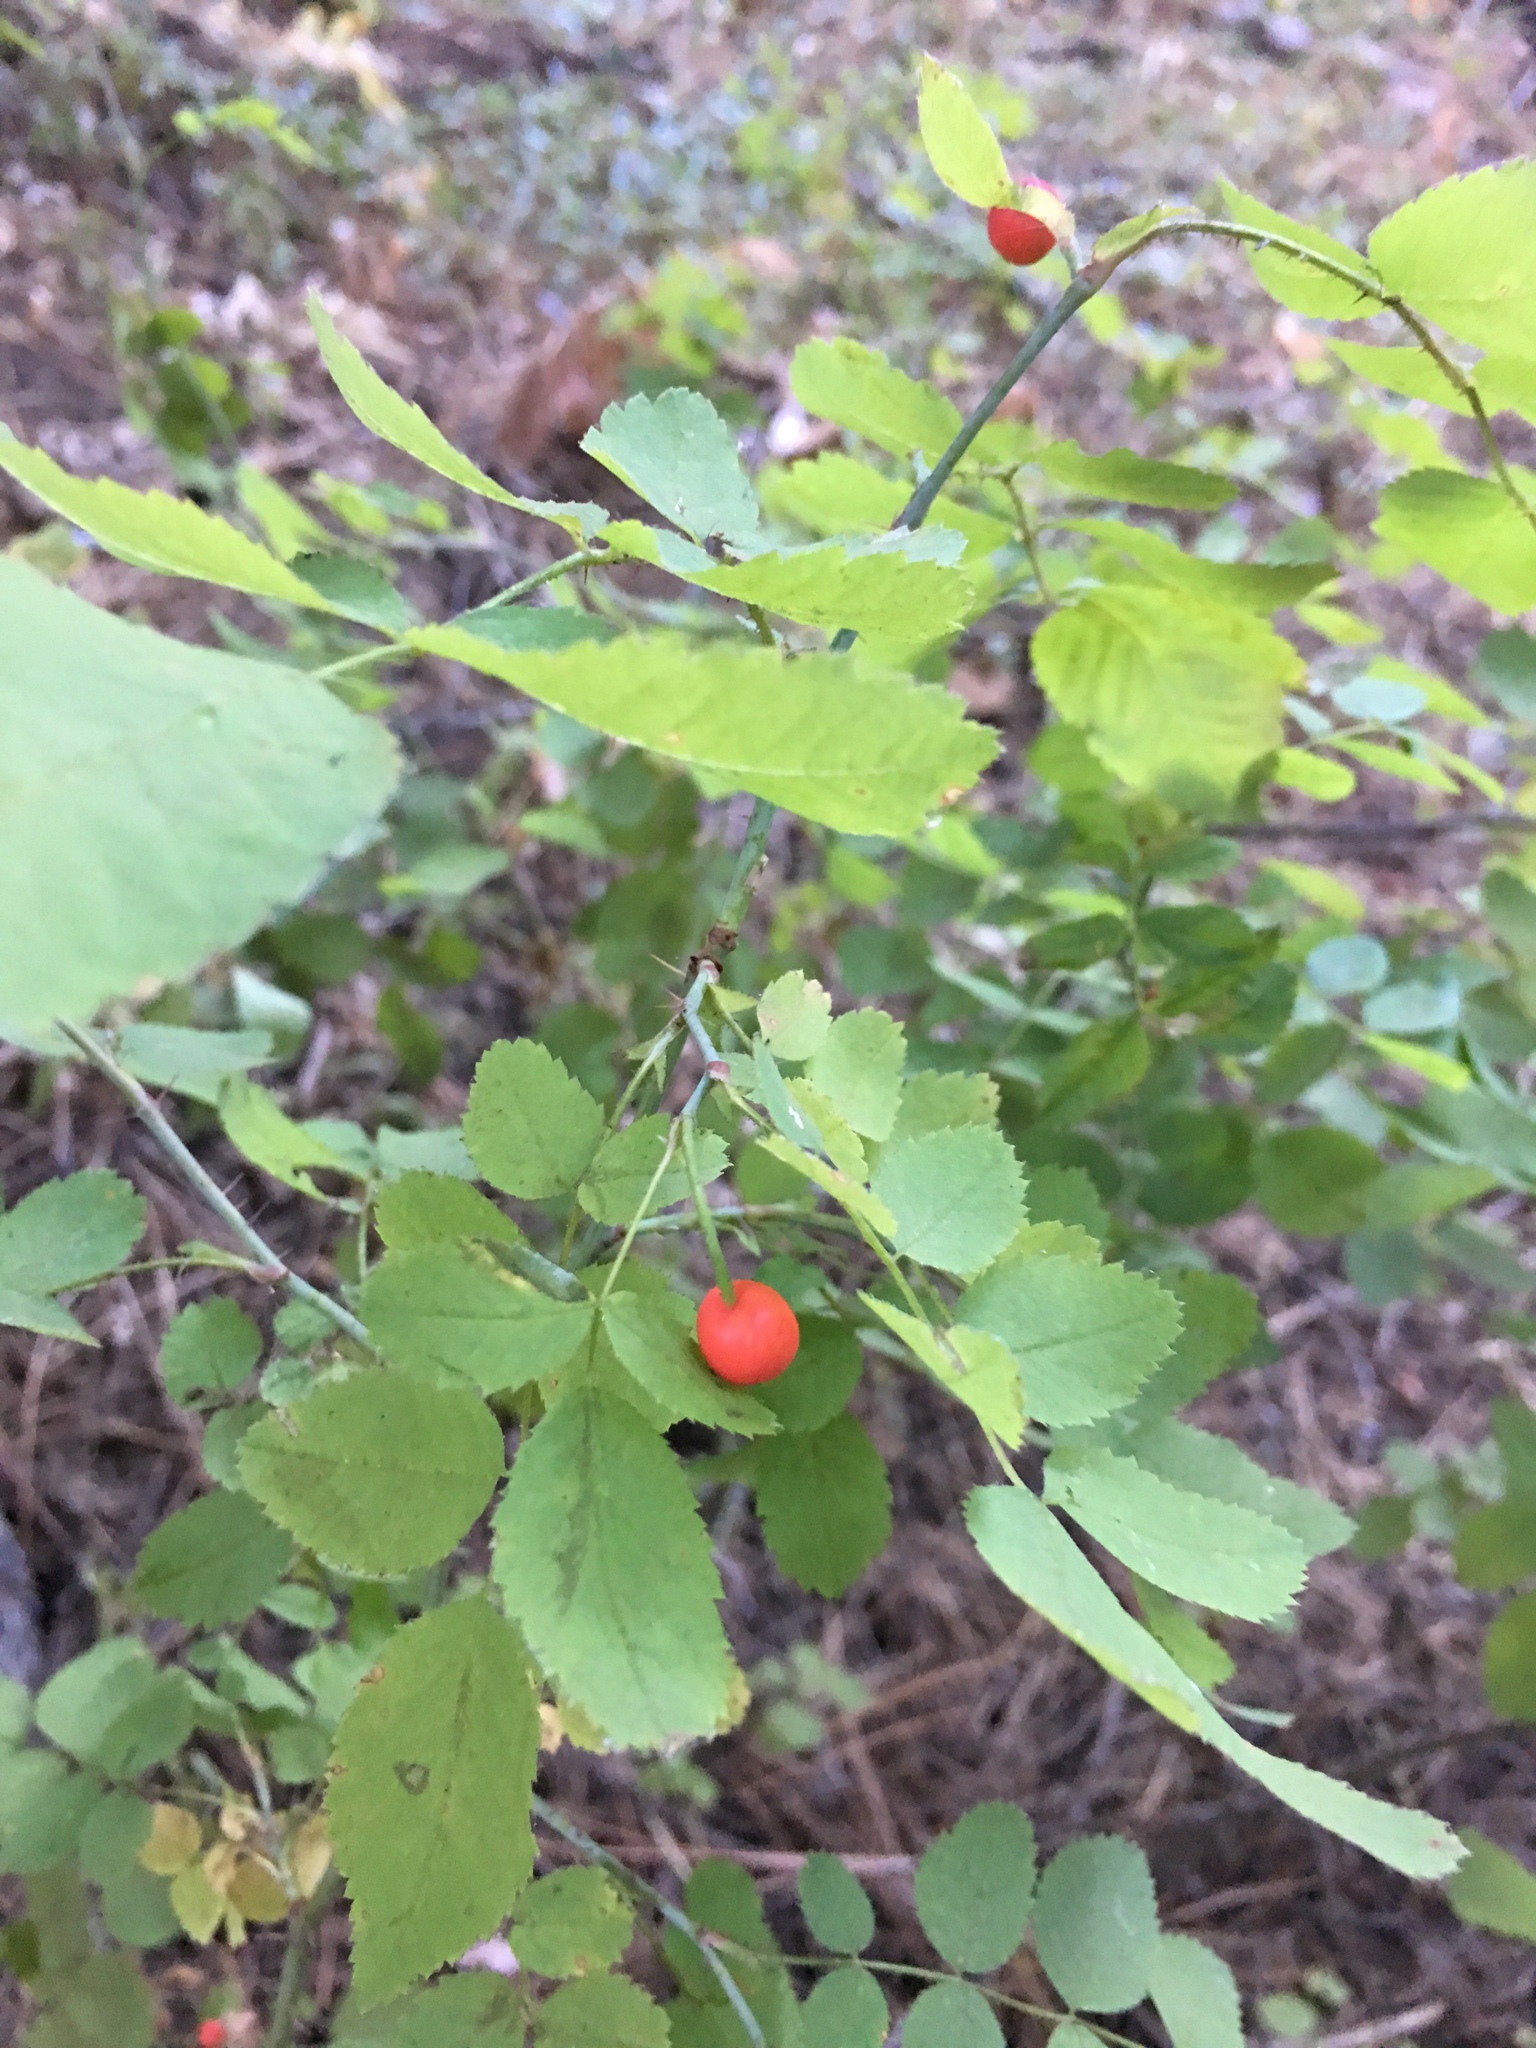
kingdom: Plantae
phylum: Tracheophyta
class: Magnoliopsida
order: Rosales
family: Rosaceae
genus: Rosa
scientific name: Rosa gymnocarpa
